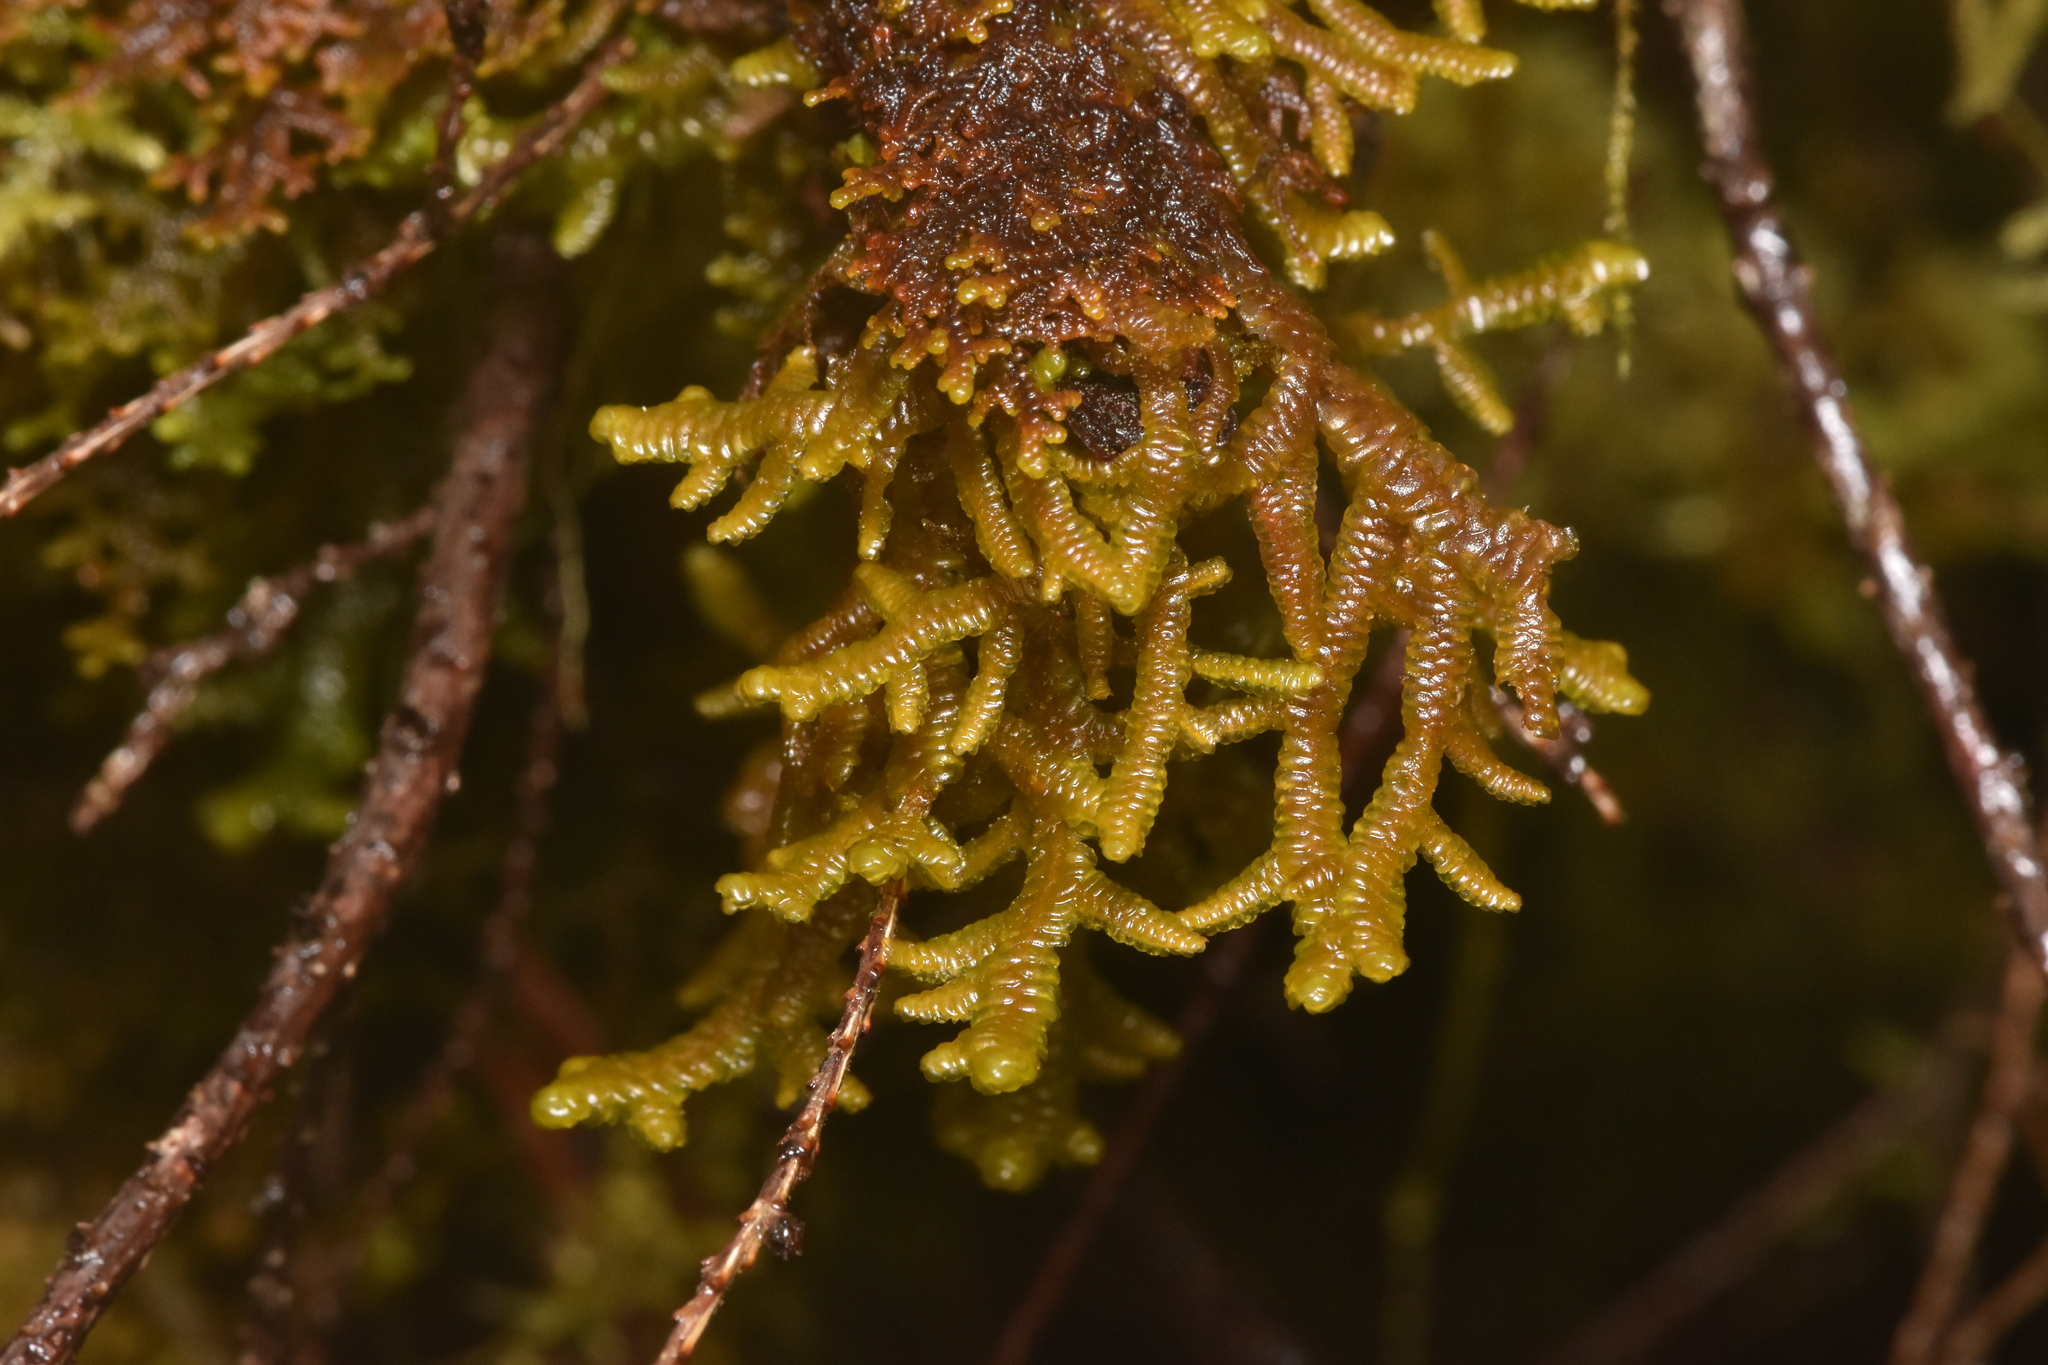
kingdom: Plantae
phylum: Marchantiophyta
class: Jungermanniopsida
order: Porellales
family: Porellaceae
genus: Porella
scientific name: Porella navicularis
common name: Tree ruffle liverwort
